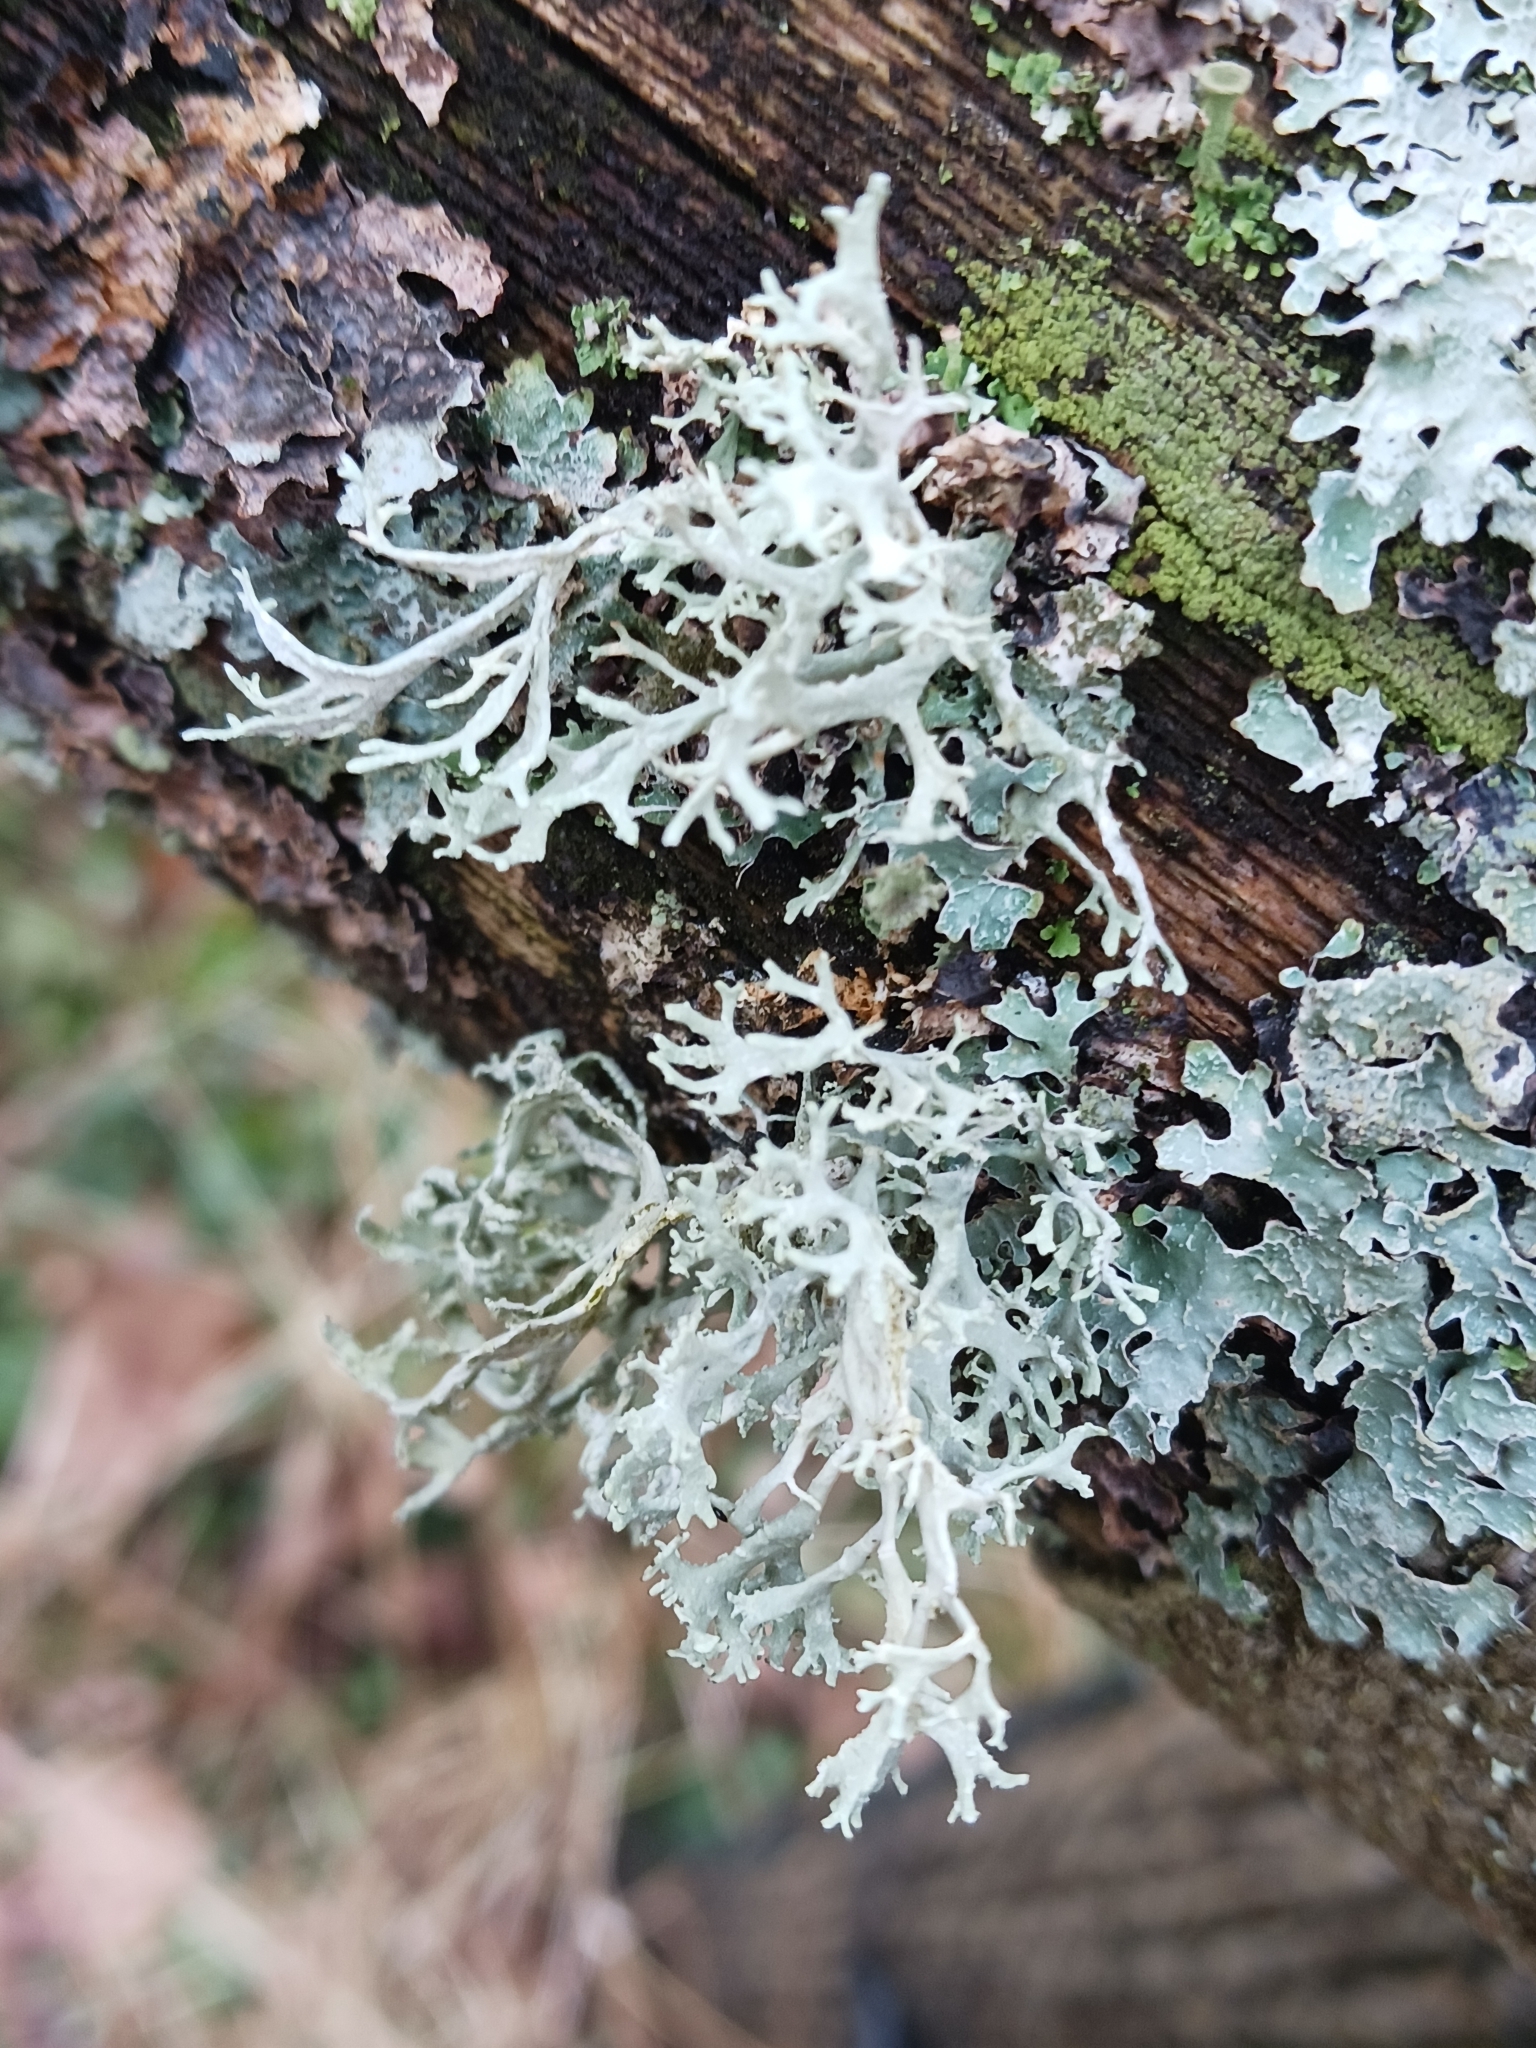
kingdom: Fungi
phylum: Ascomycota
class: Lecanoromycetes
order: Lecanorales
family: Parmeliaceae
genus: Evernia
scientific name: Evernia prunastri
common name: Oak moss
